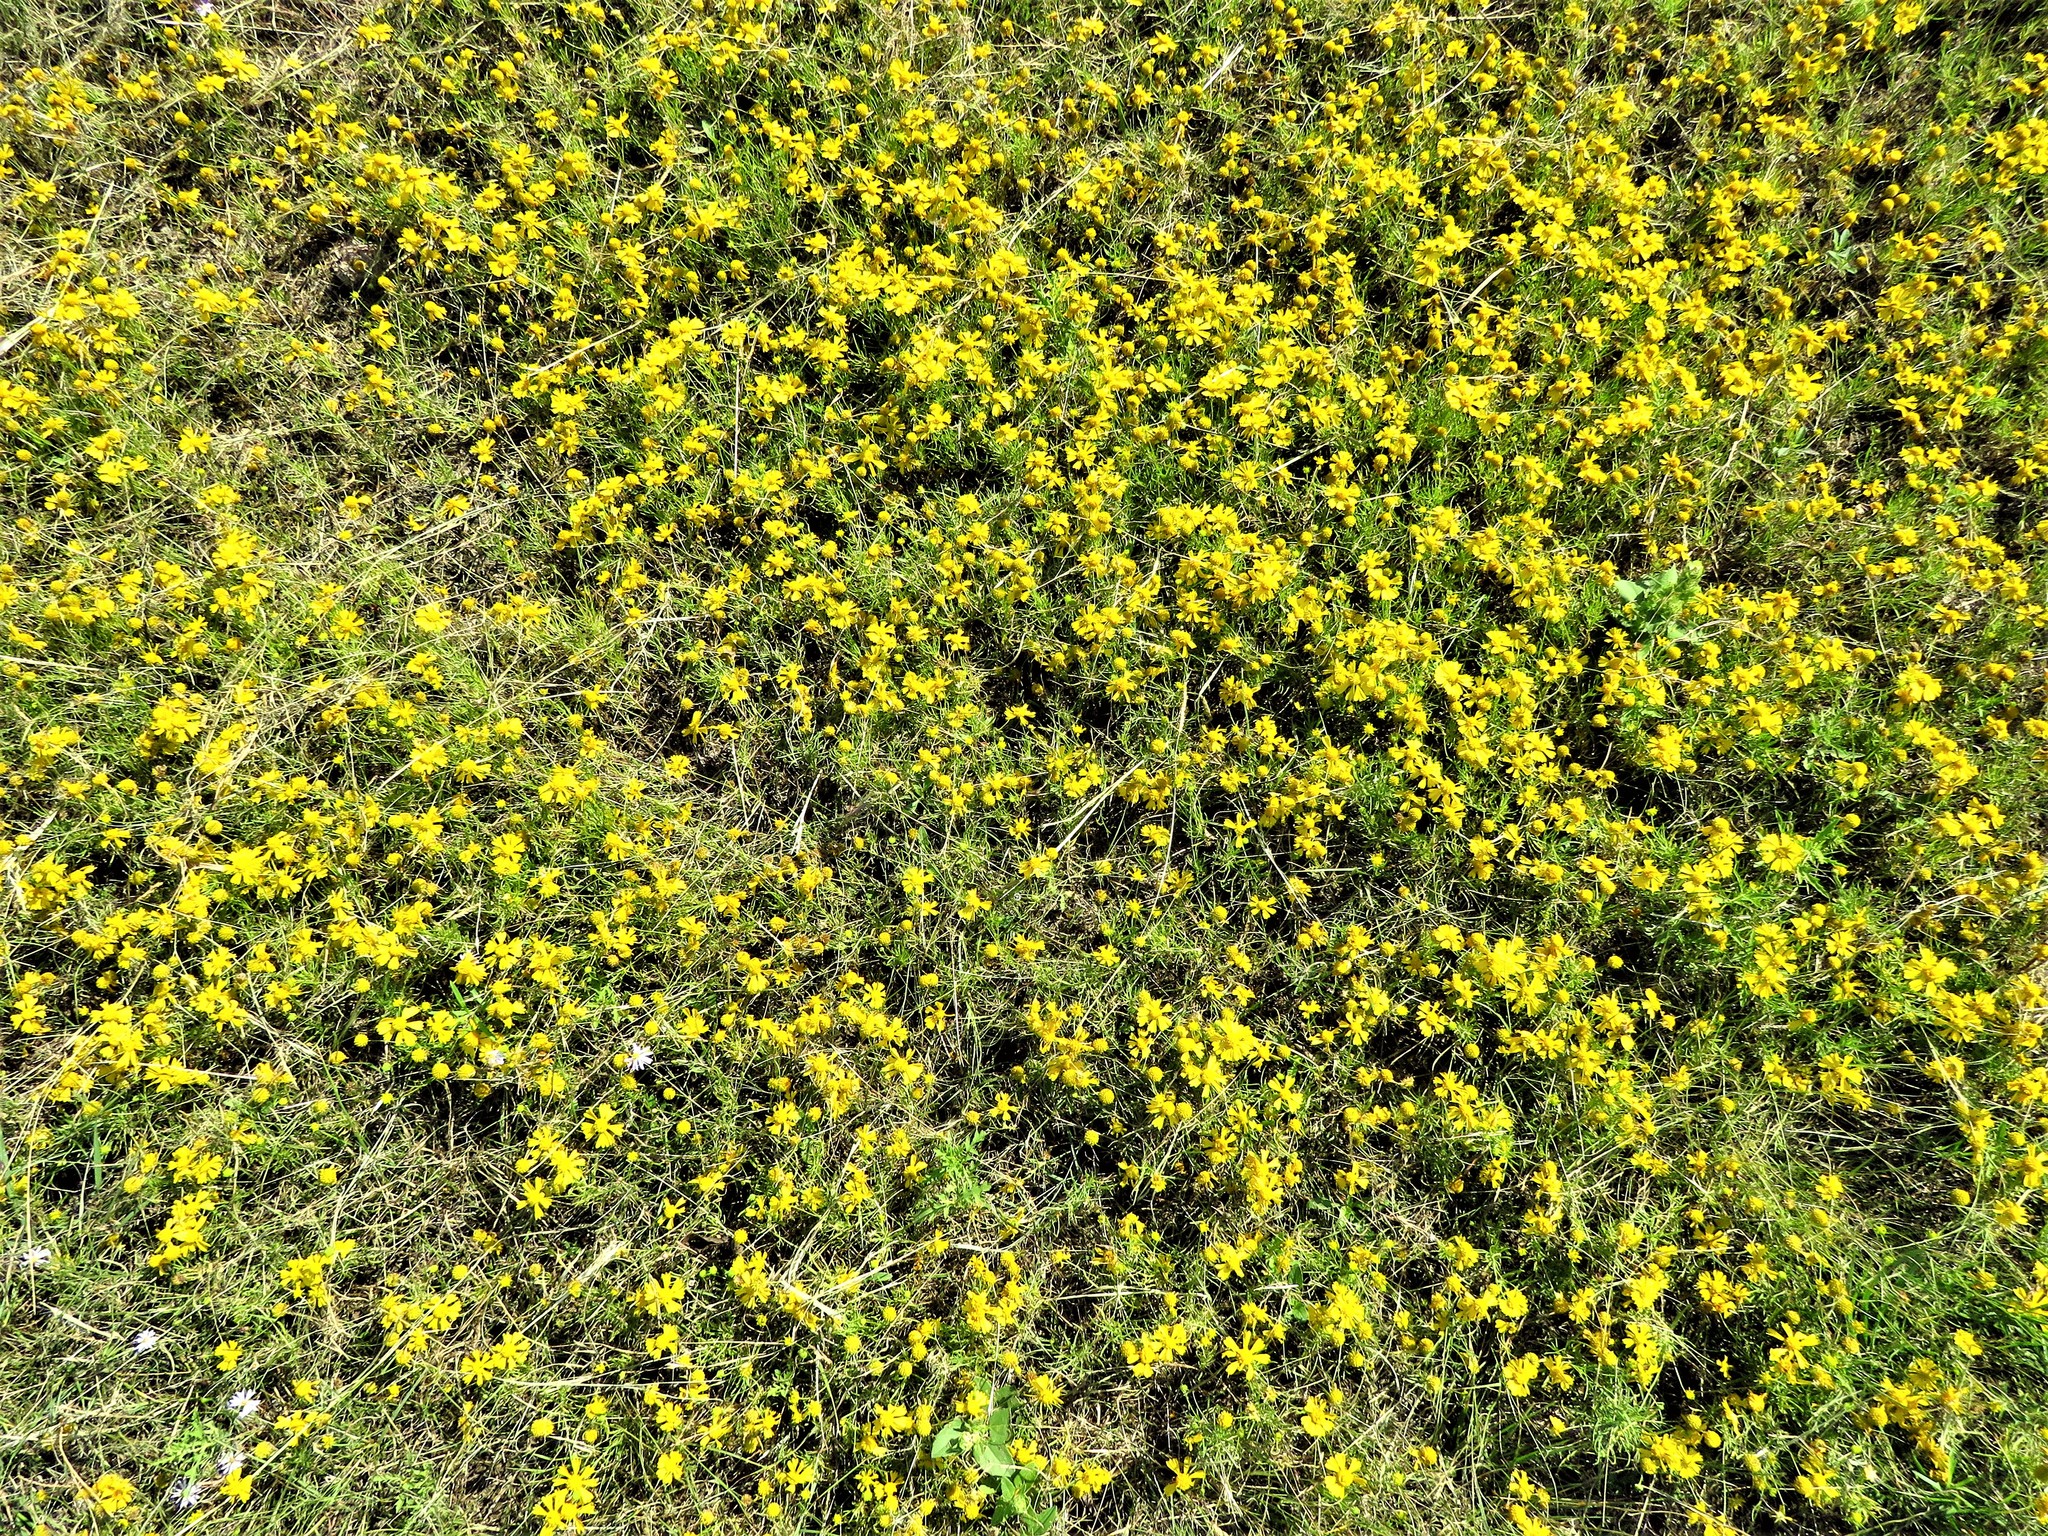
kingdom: Plantae
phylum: Tracheophyta
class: Magnoliopsida
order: Asterales
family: Asteraceae
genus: Helenium
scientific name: Helenium amarum
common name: Bitter sneezeweed
